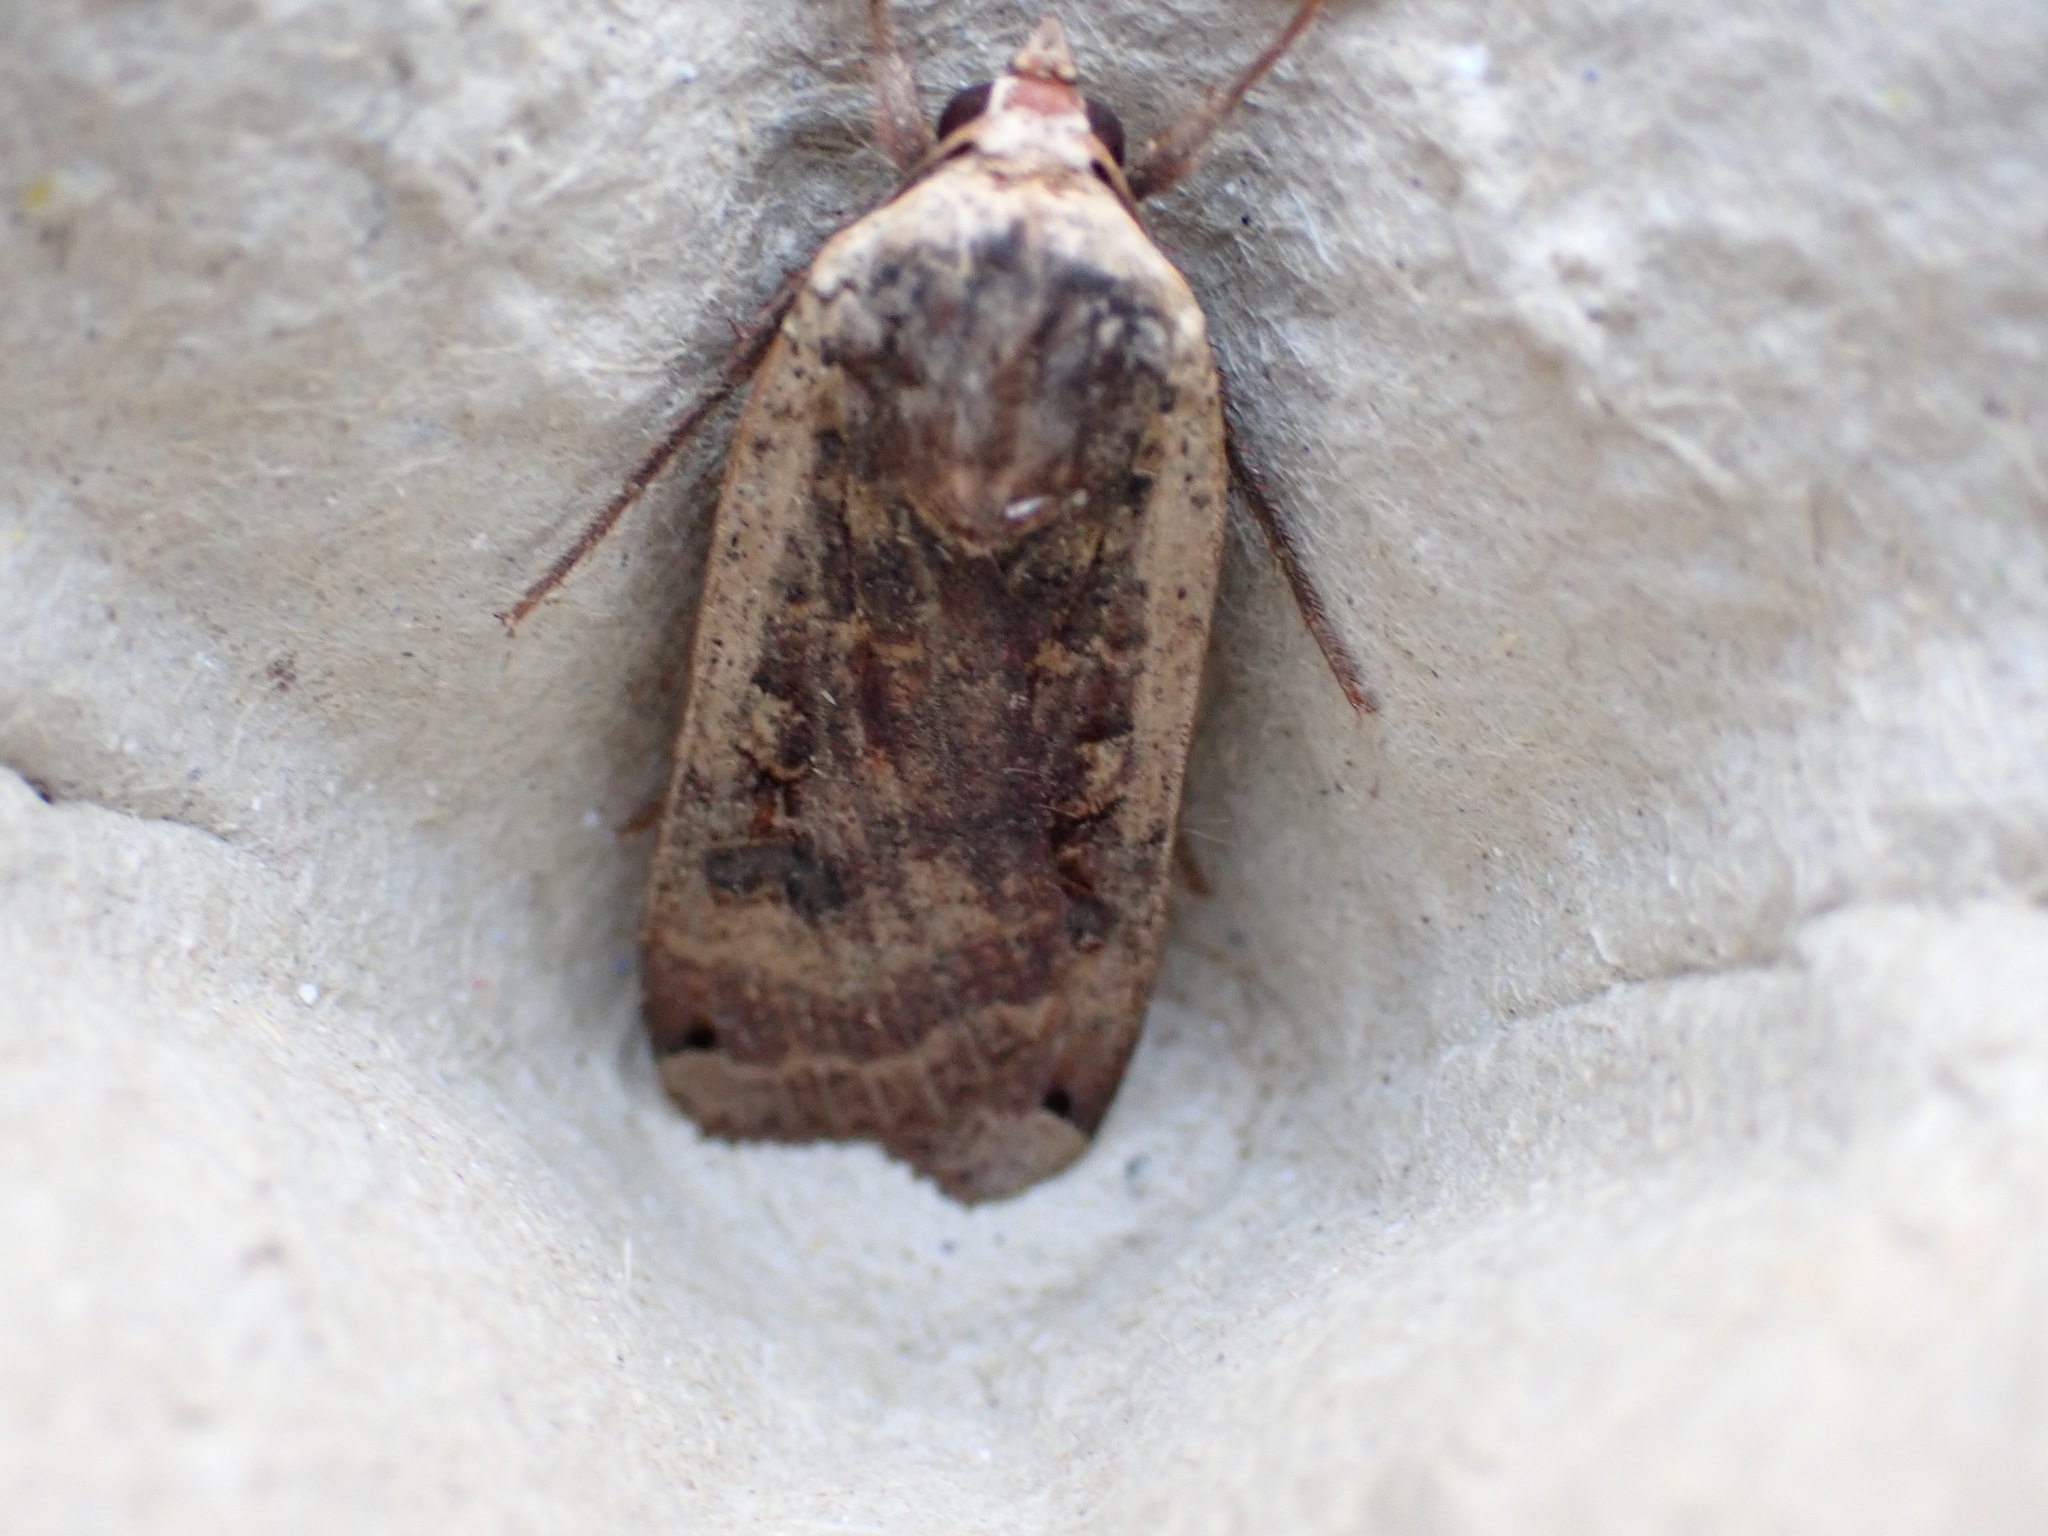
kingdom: Animalia
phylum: Arthropoda
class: Insecta
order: Lepidoptera
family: Noctuidae
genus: Noctua
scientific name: Noctua pronuba
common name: Large yellow underwing
